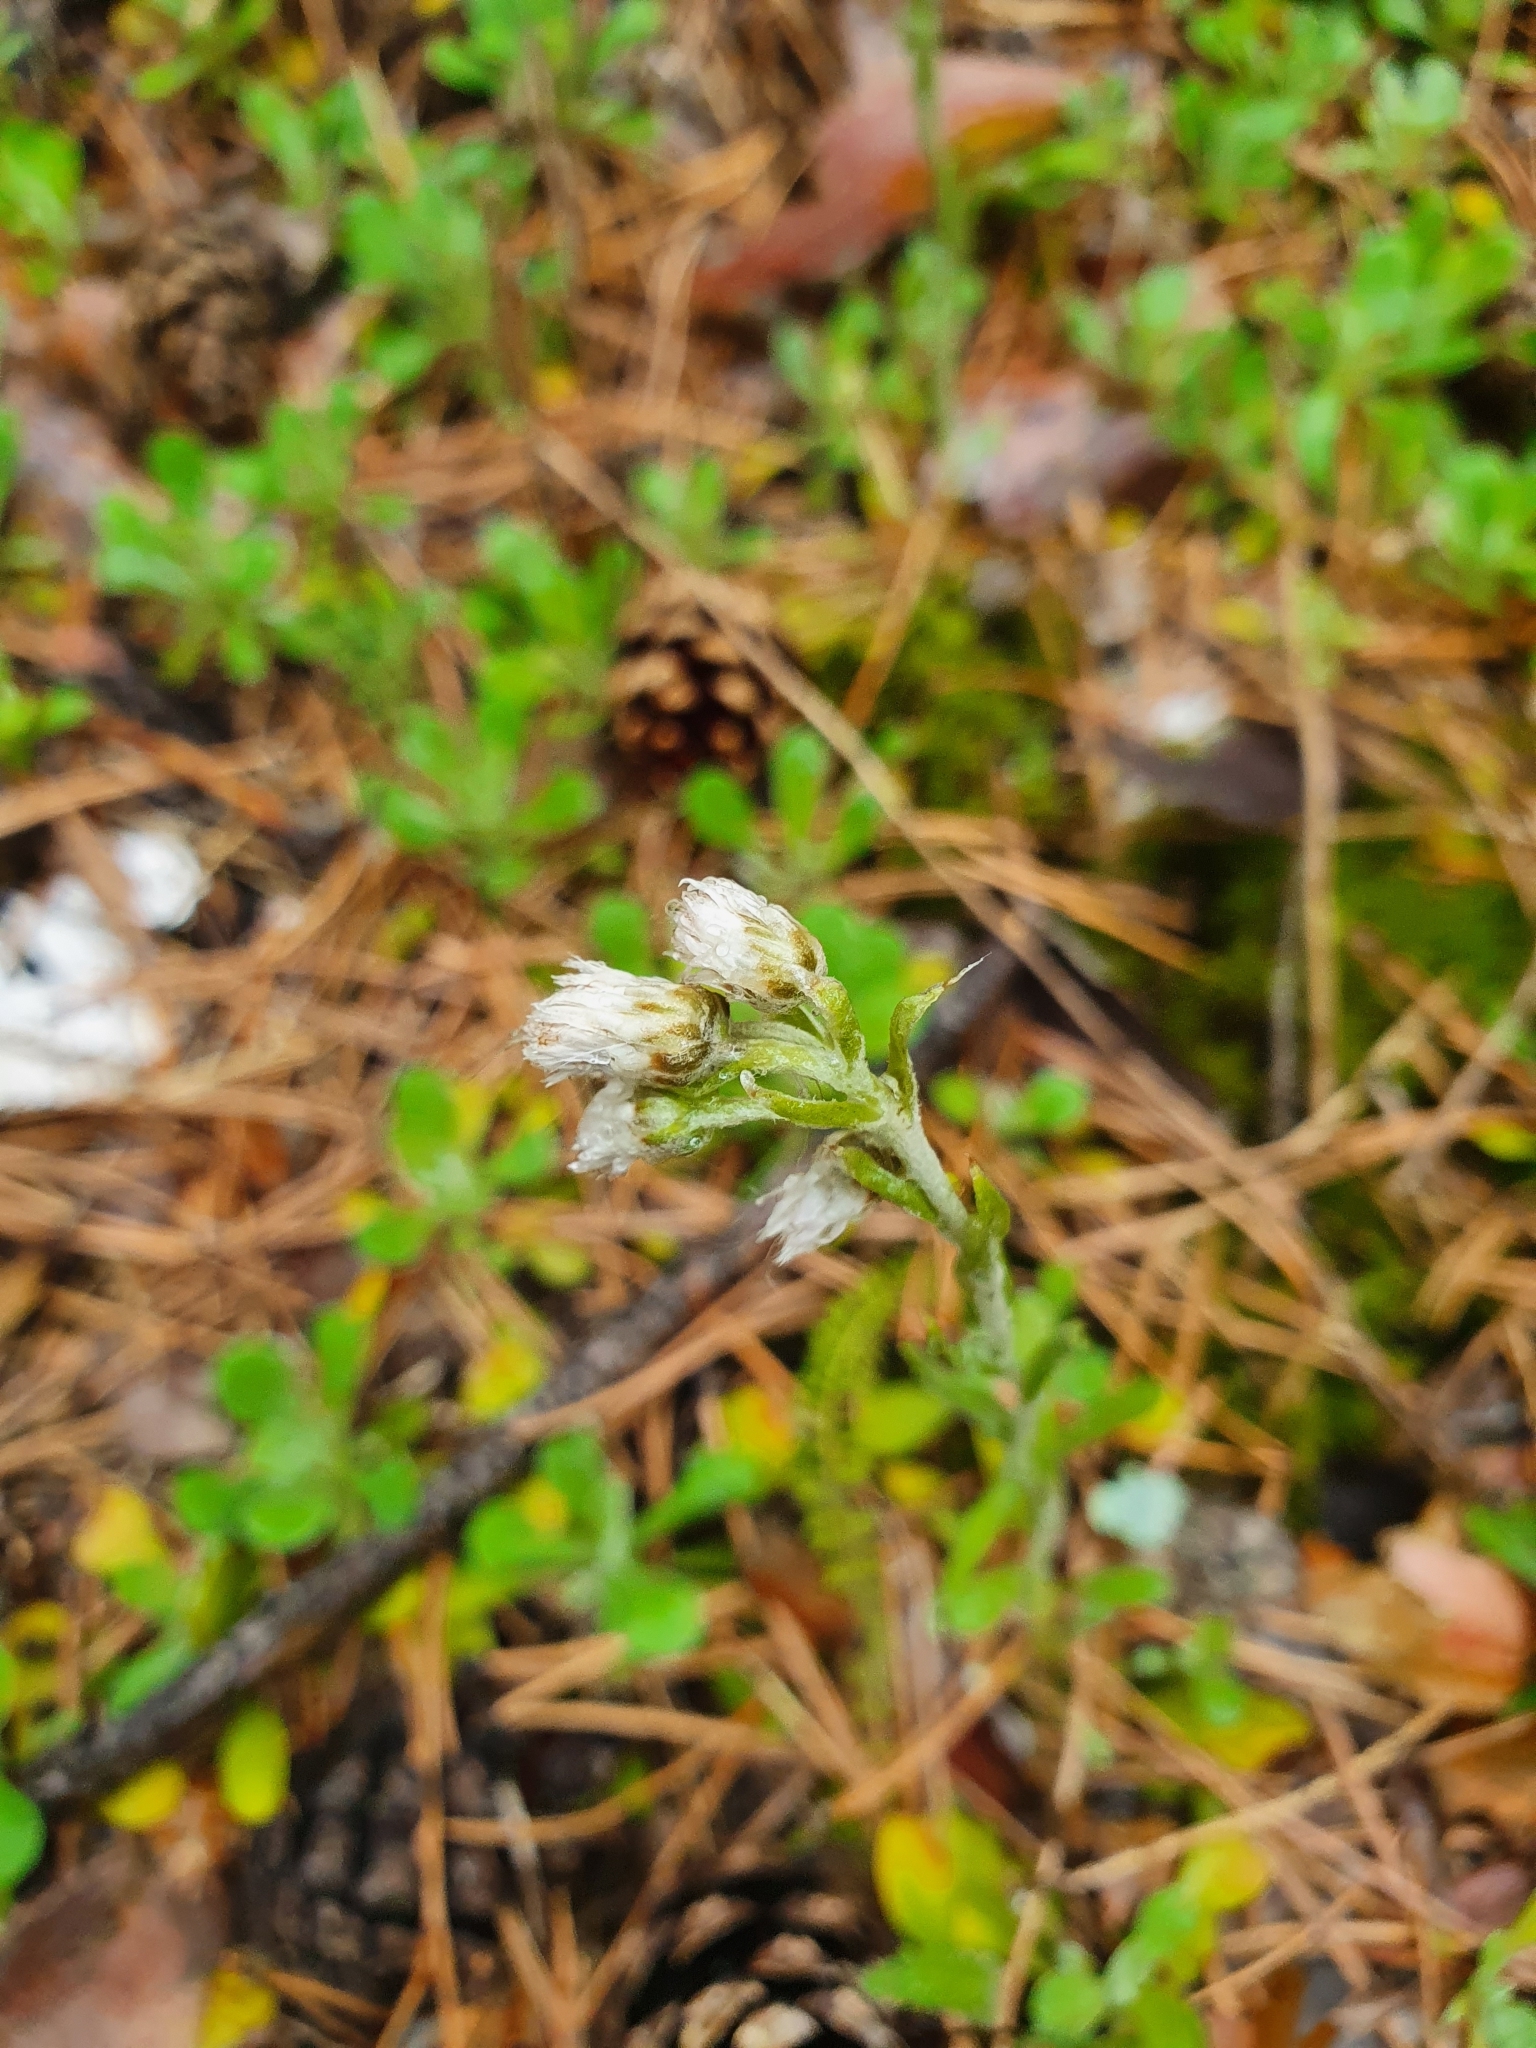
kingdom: Plantae
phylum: Tracheophyta
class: Magnoliopsida
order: Asterales
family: Asteraceae
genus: Antennaria
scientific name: Antennaria dioica
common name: Mountain everlasting
